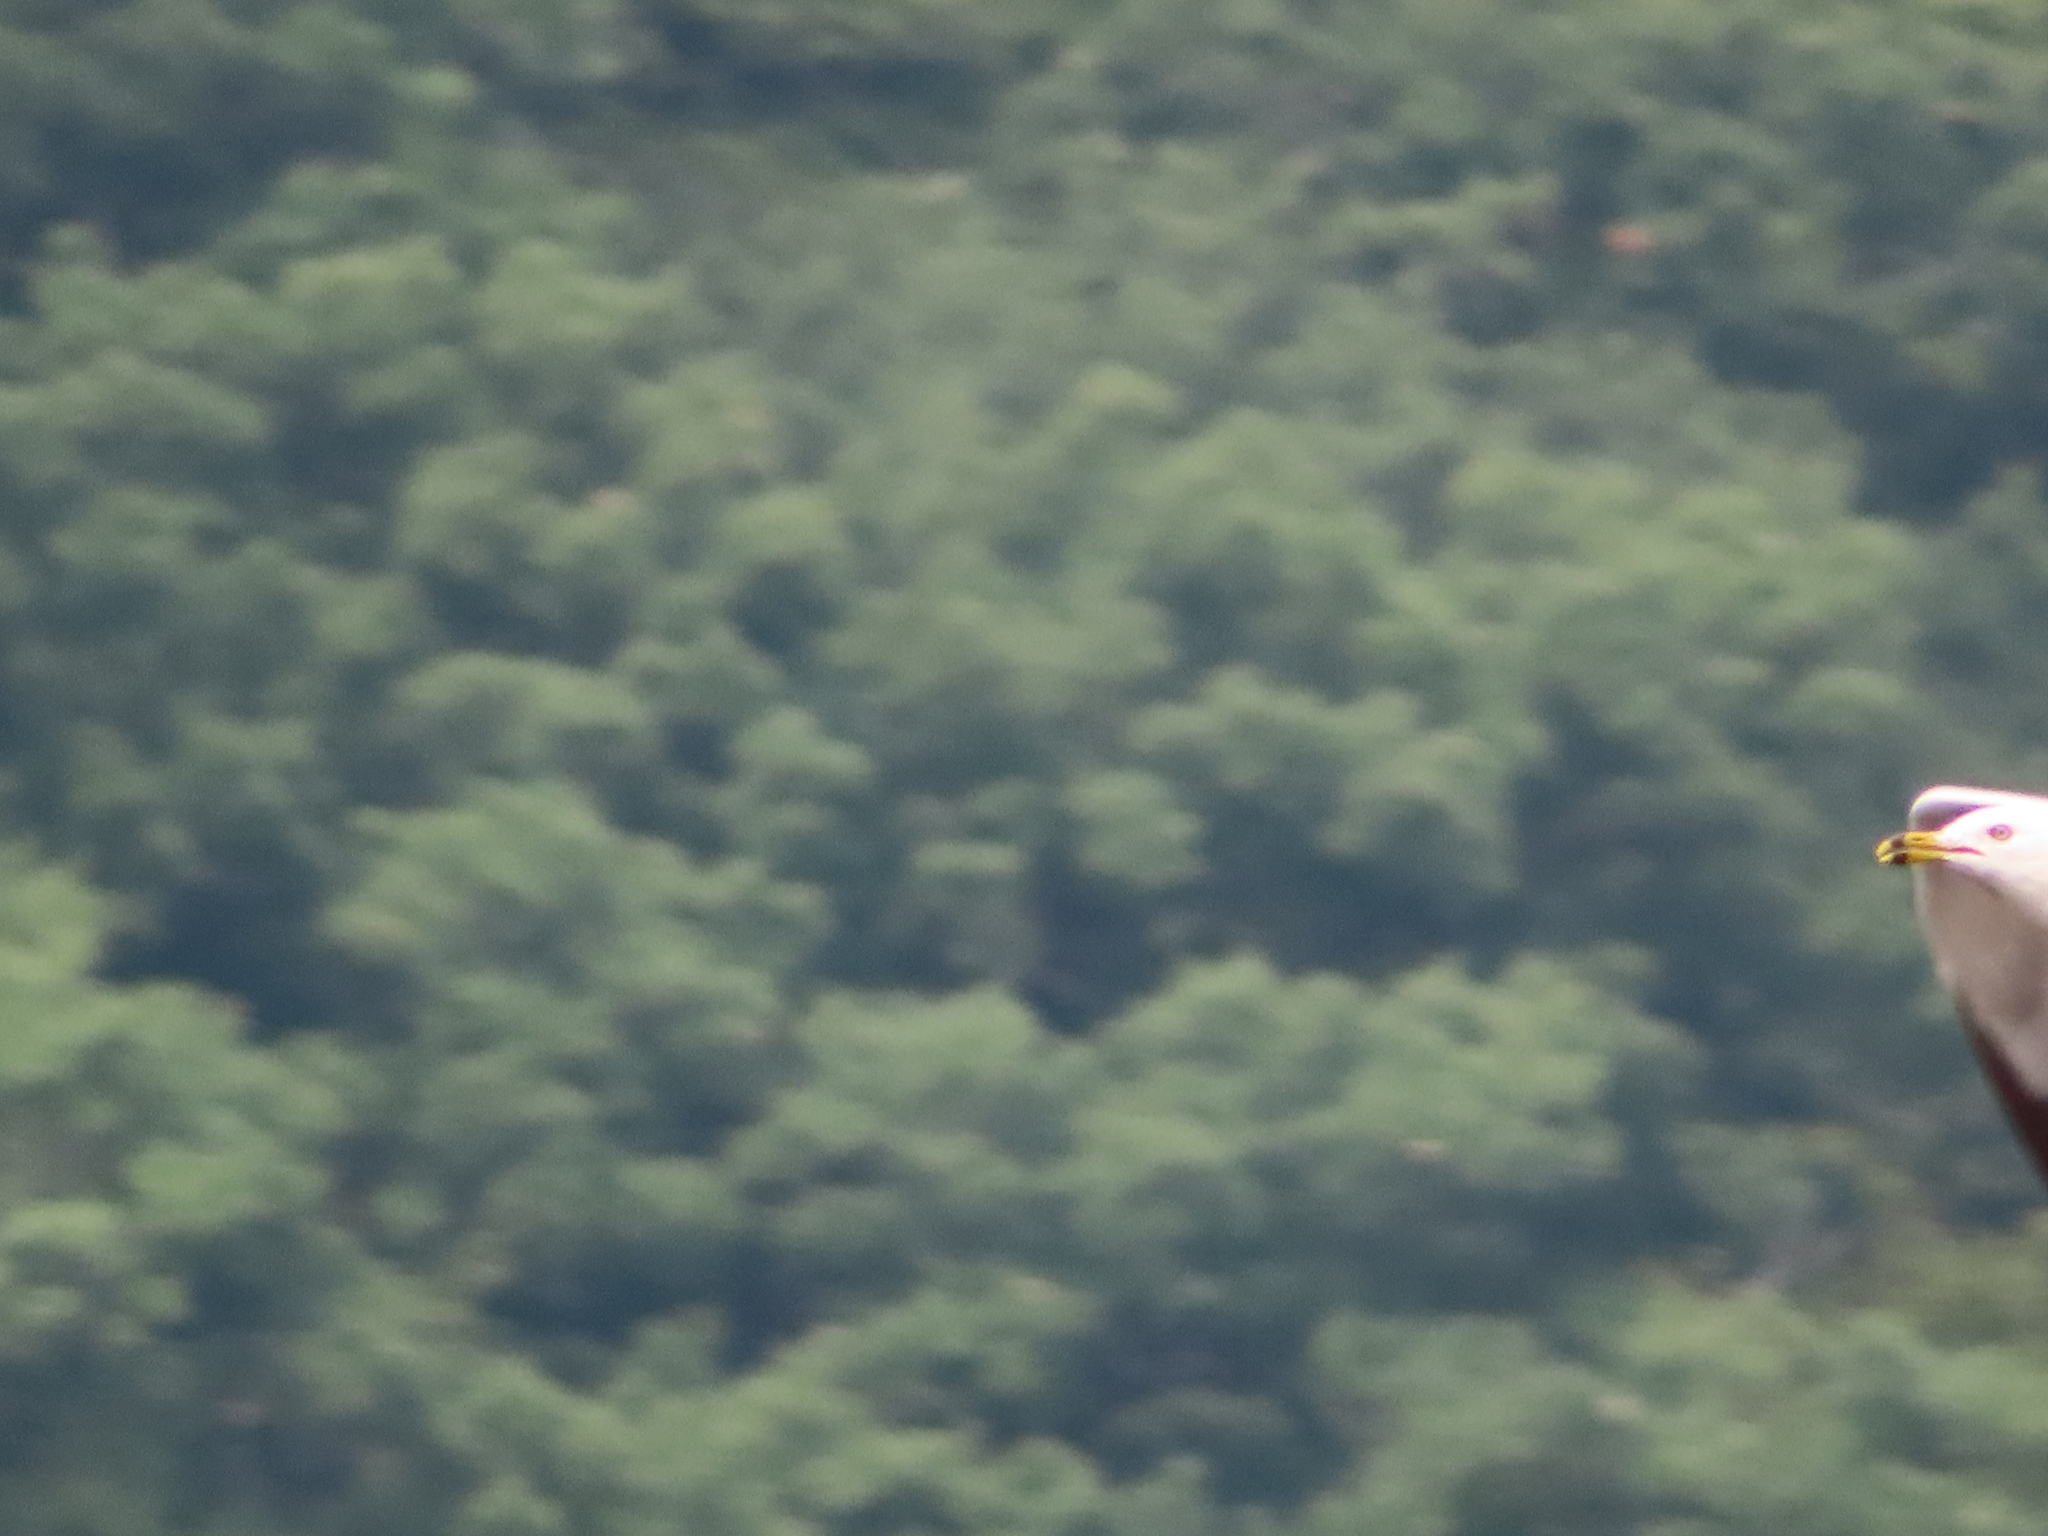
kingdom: Animalia
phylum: Chordata
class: Aves
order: Charadriiformes
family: Laridae
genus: Larus
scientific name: Larus delawarensis
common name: Ring-billed gull
